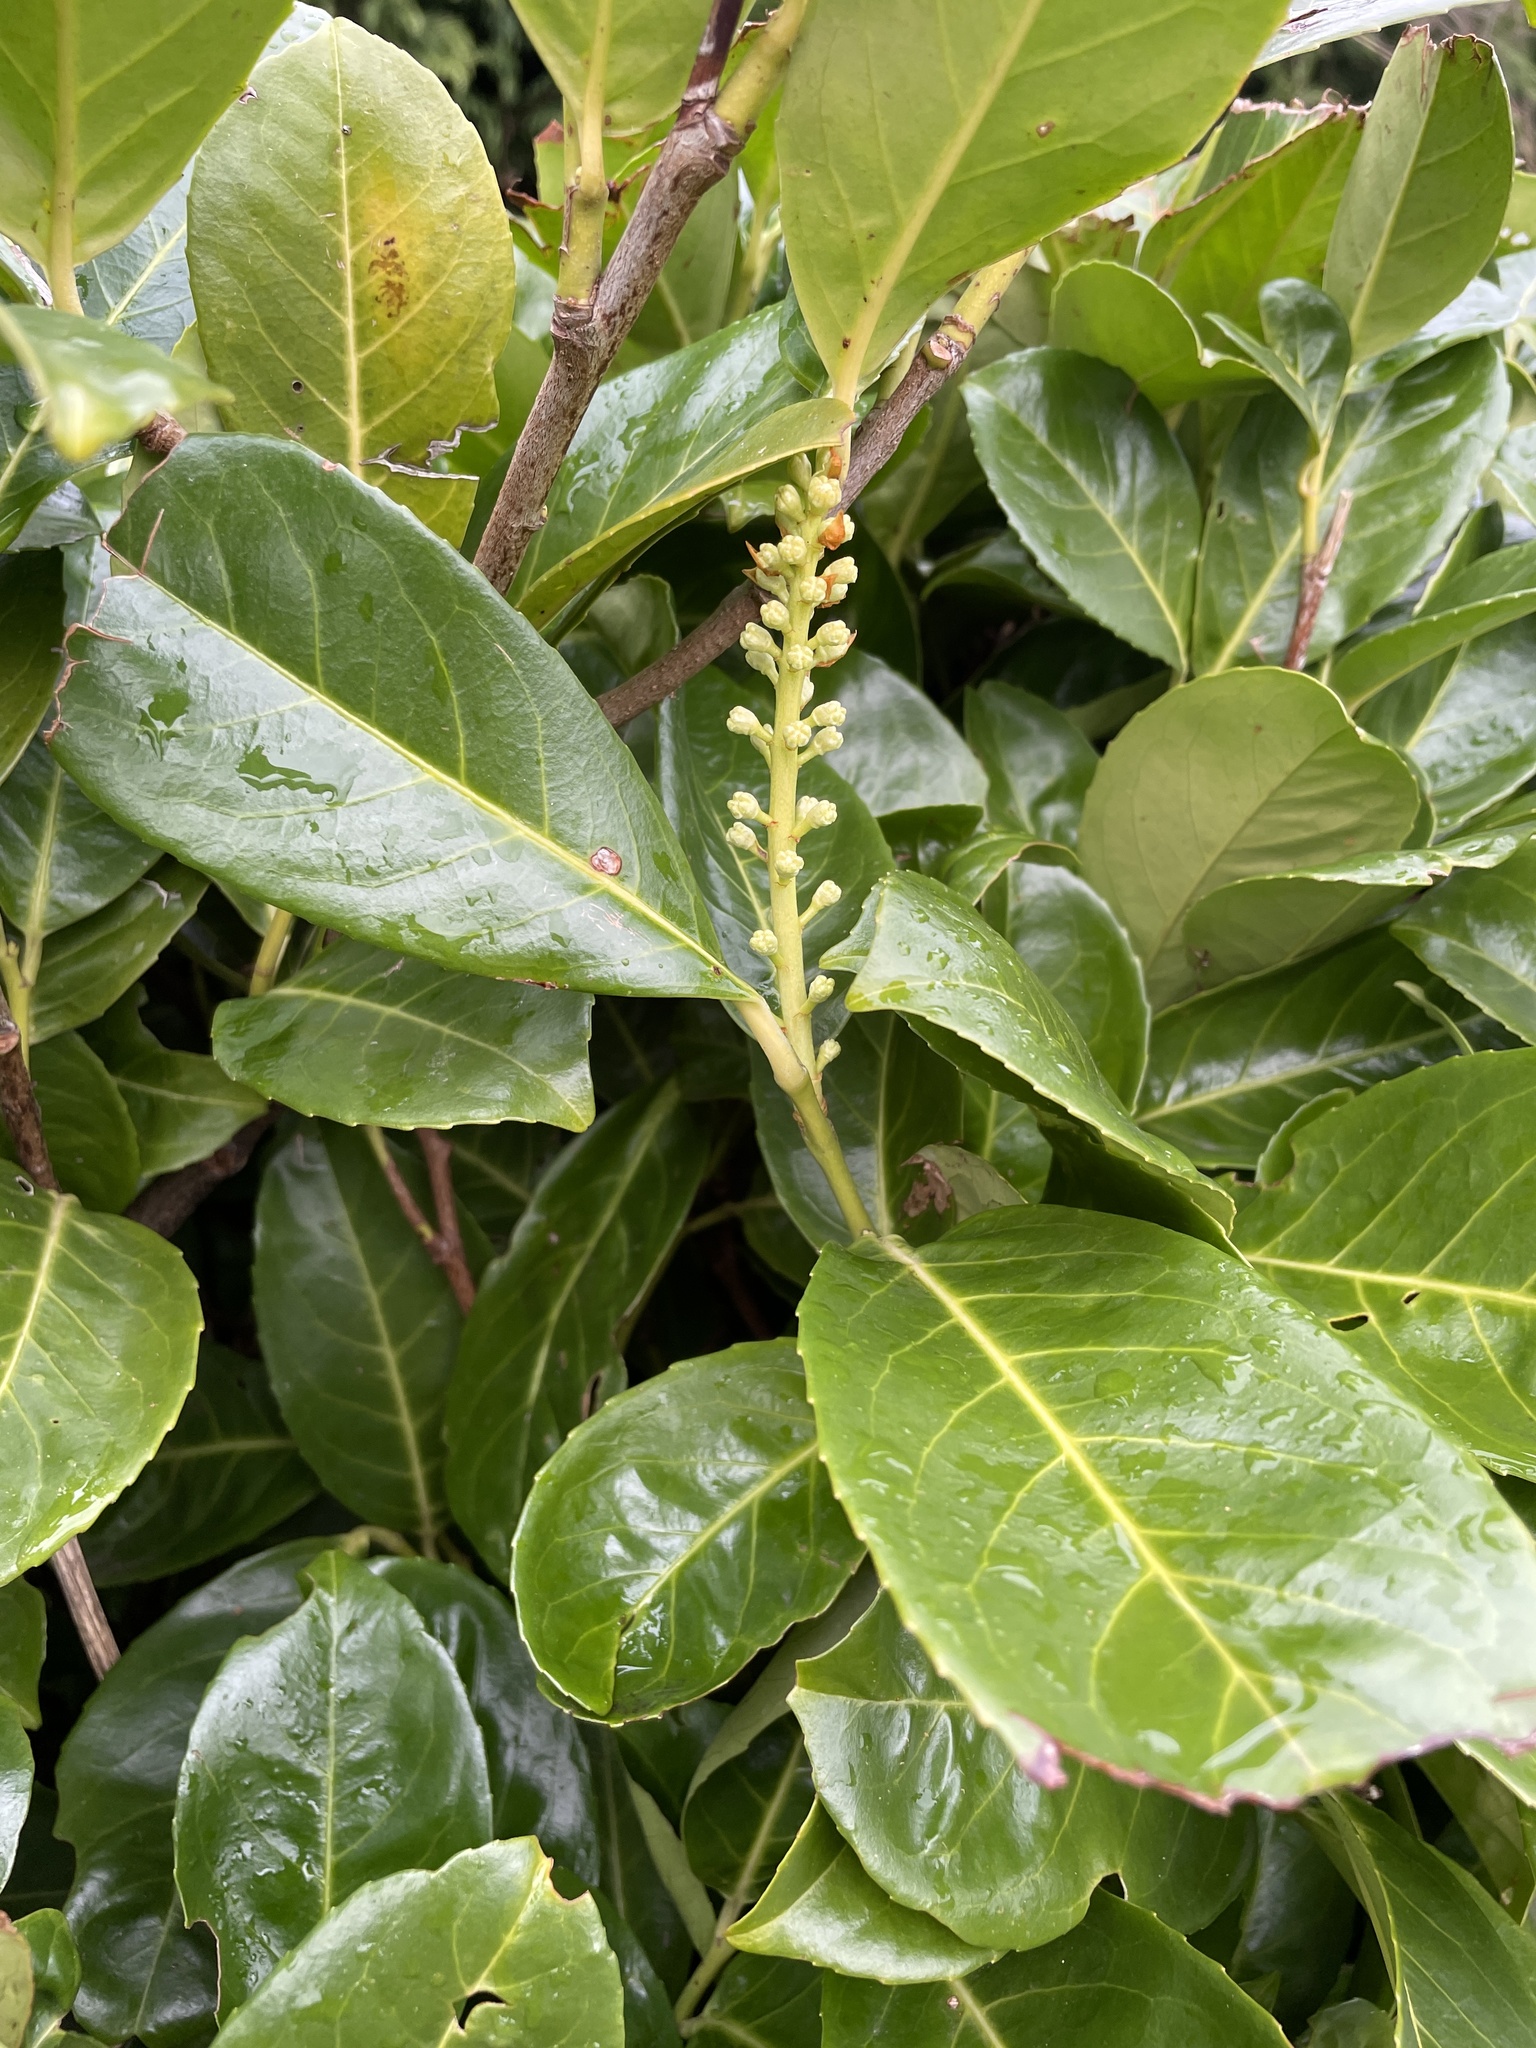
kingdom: Plantae
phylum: Tracheophyta
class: Magnoliopsida
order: Rosales
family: Rosaceae
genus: Prunus
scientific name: Prunus laurocerasus
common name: Cherry laurel
